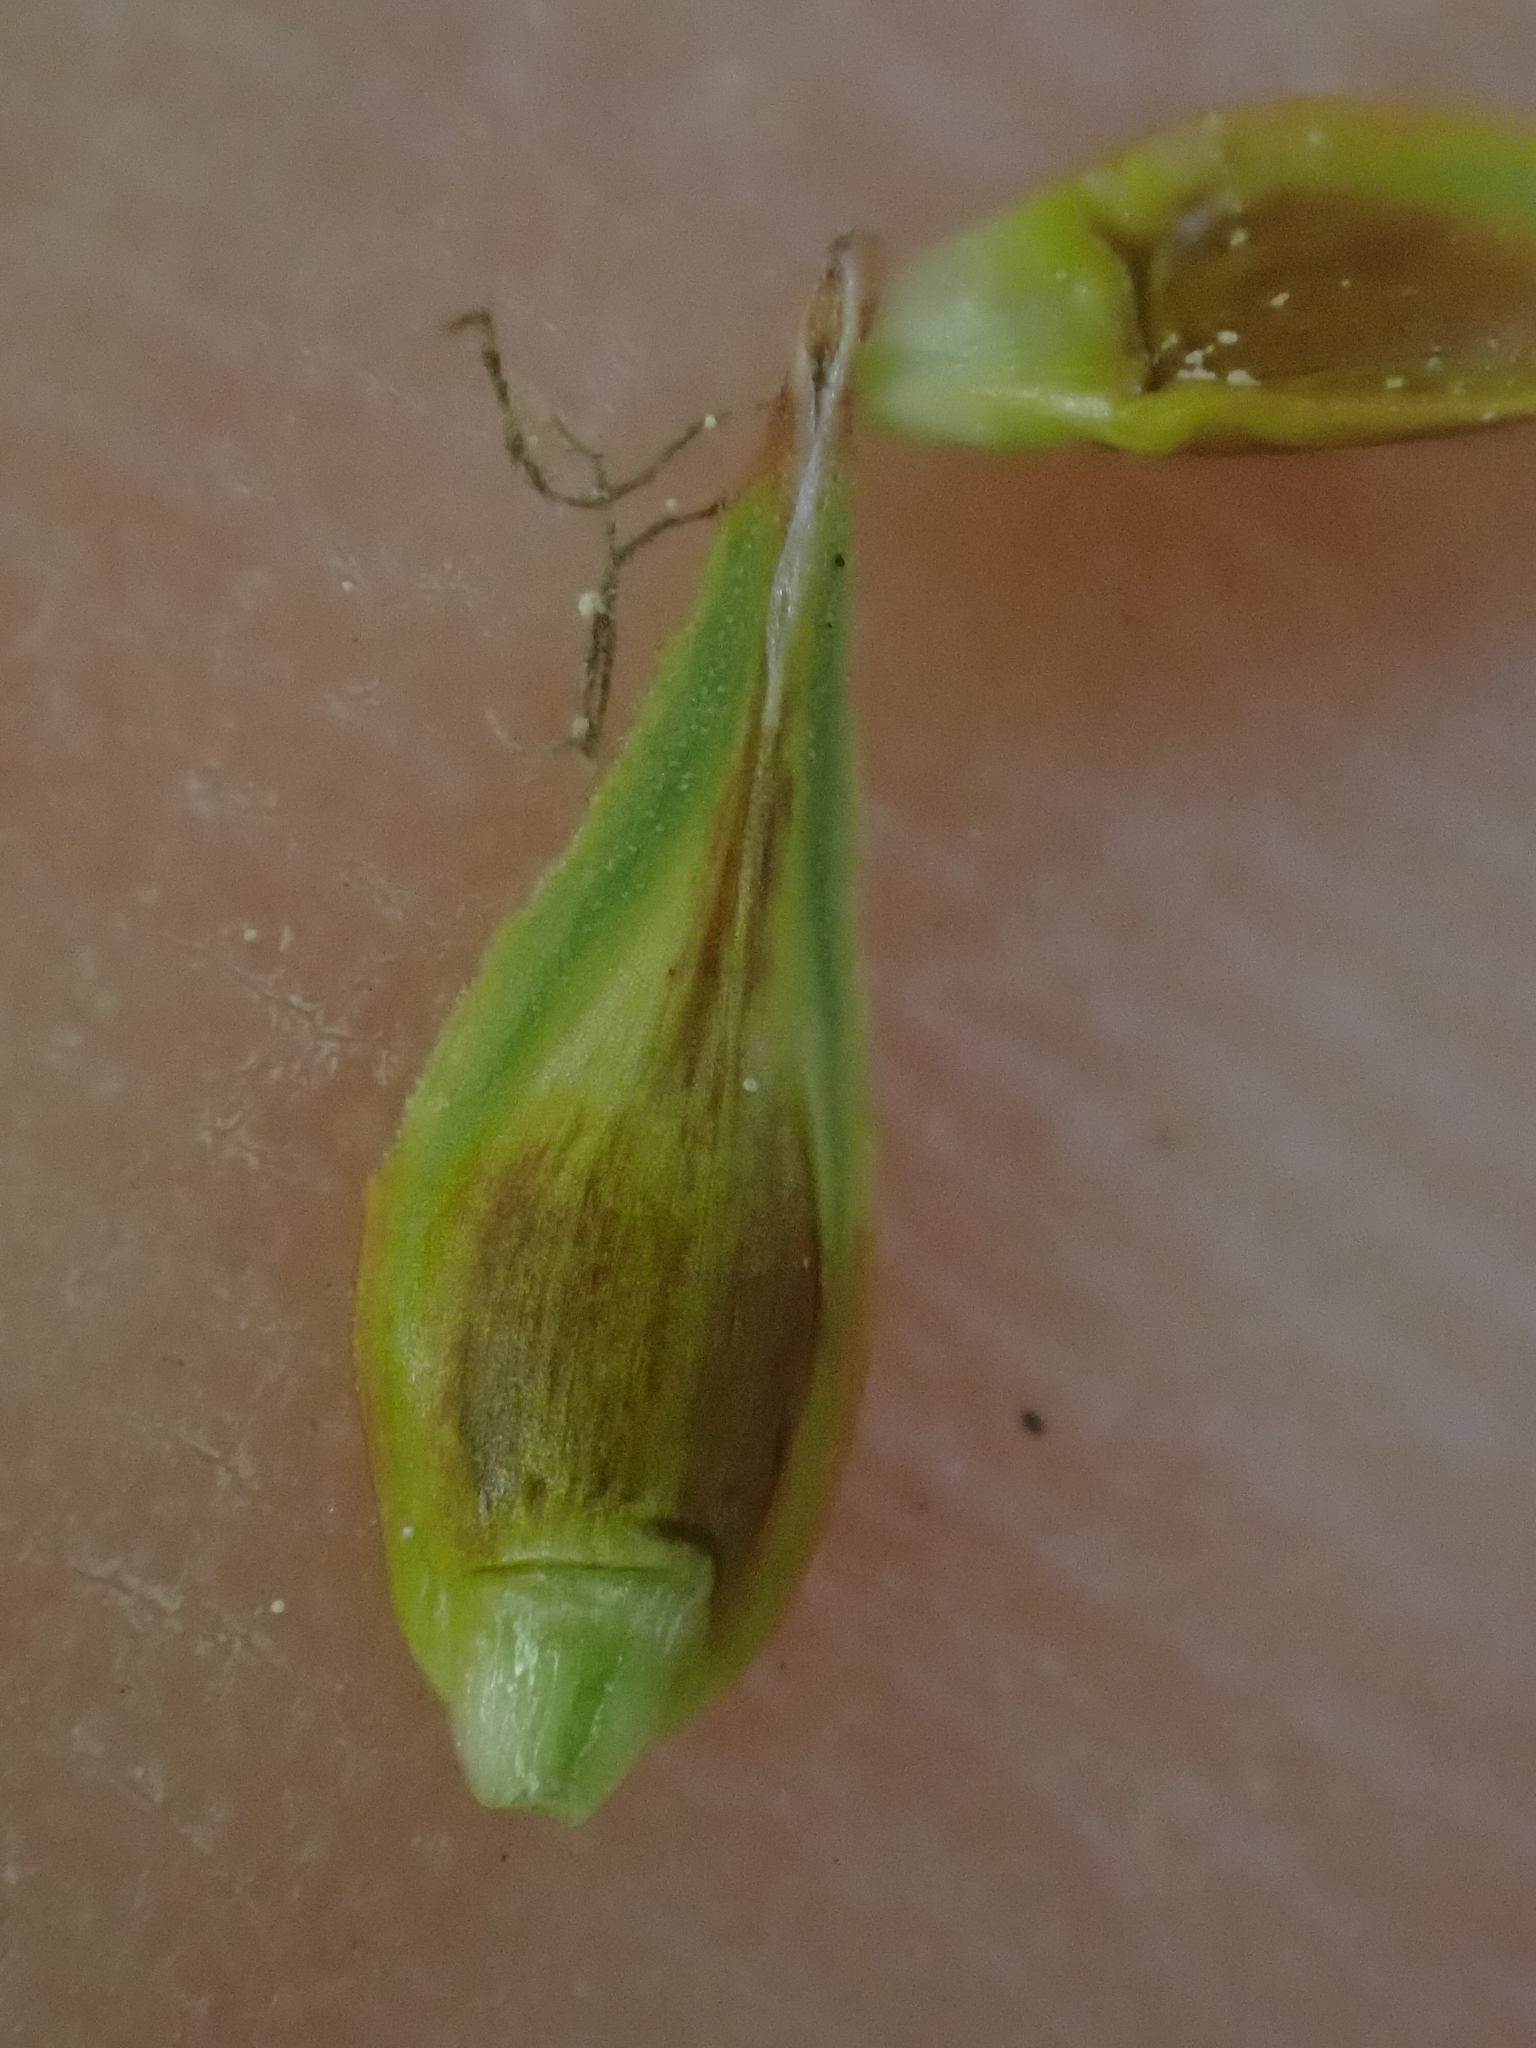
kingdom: Plantae
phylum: Tracheophyta
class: Liliopsida
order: Poales
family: Cyperaceae
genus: Carex
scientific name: Carex petasata
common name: Liddon's sedge
